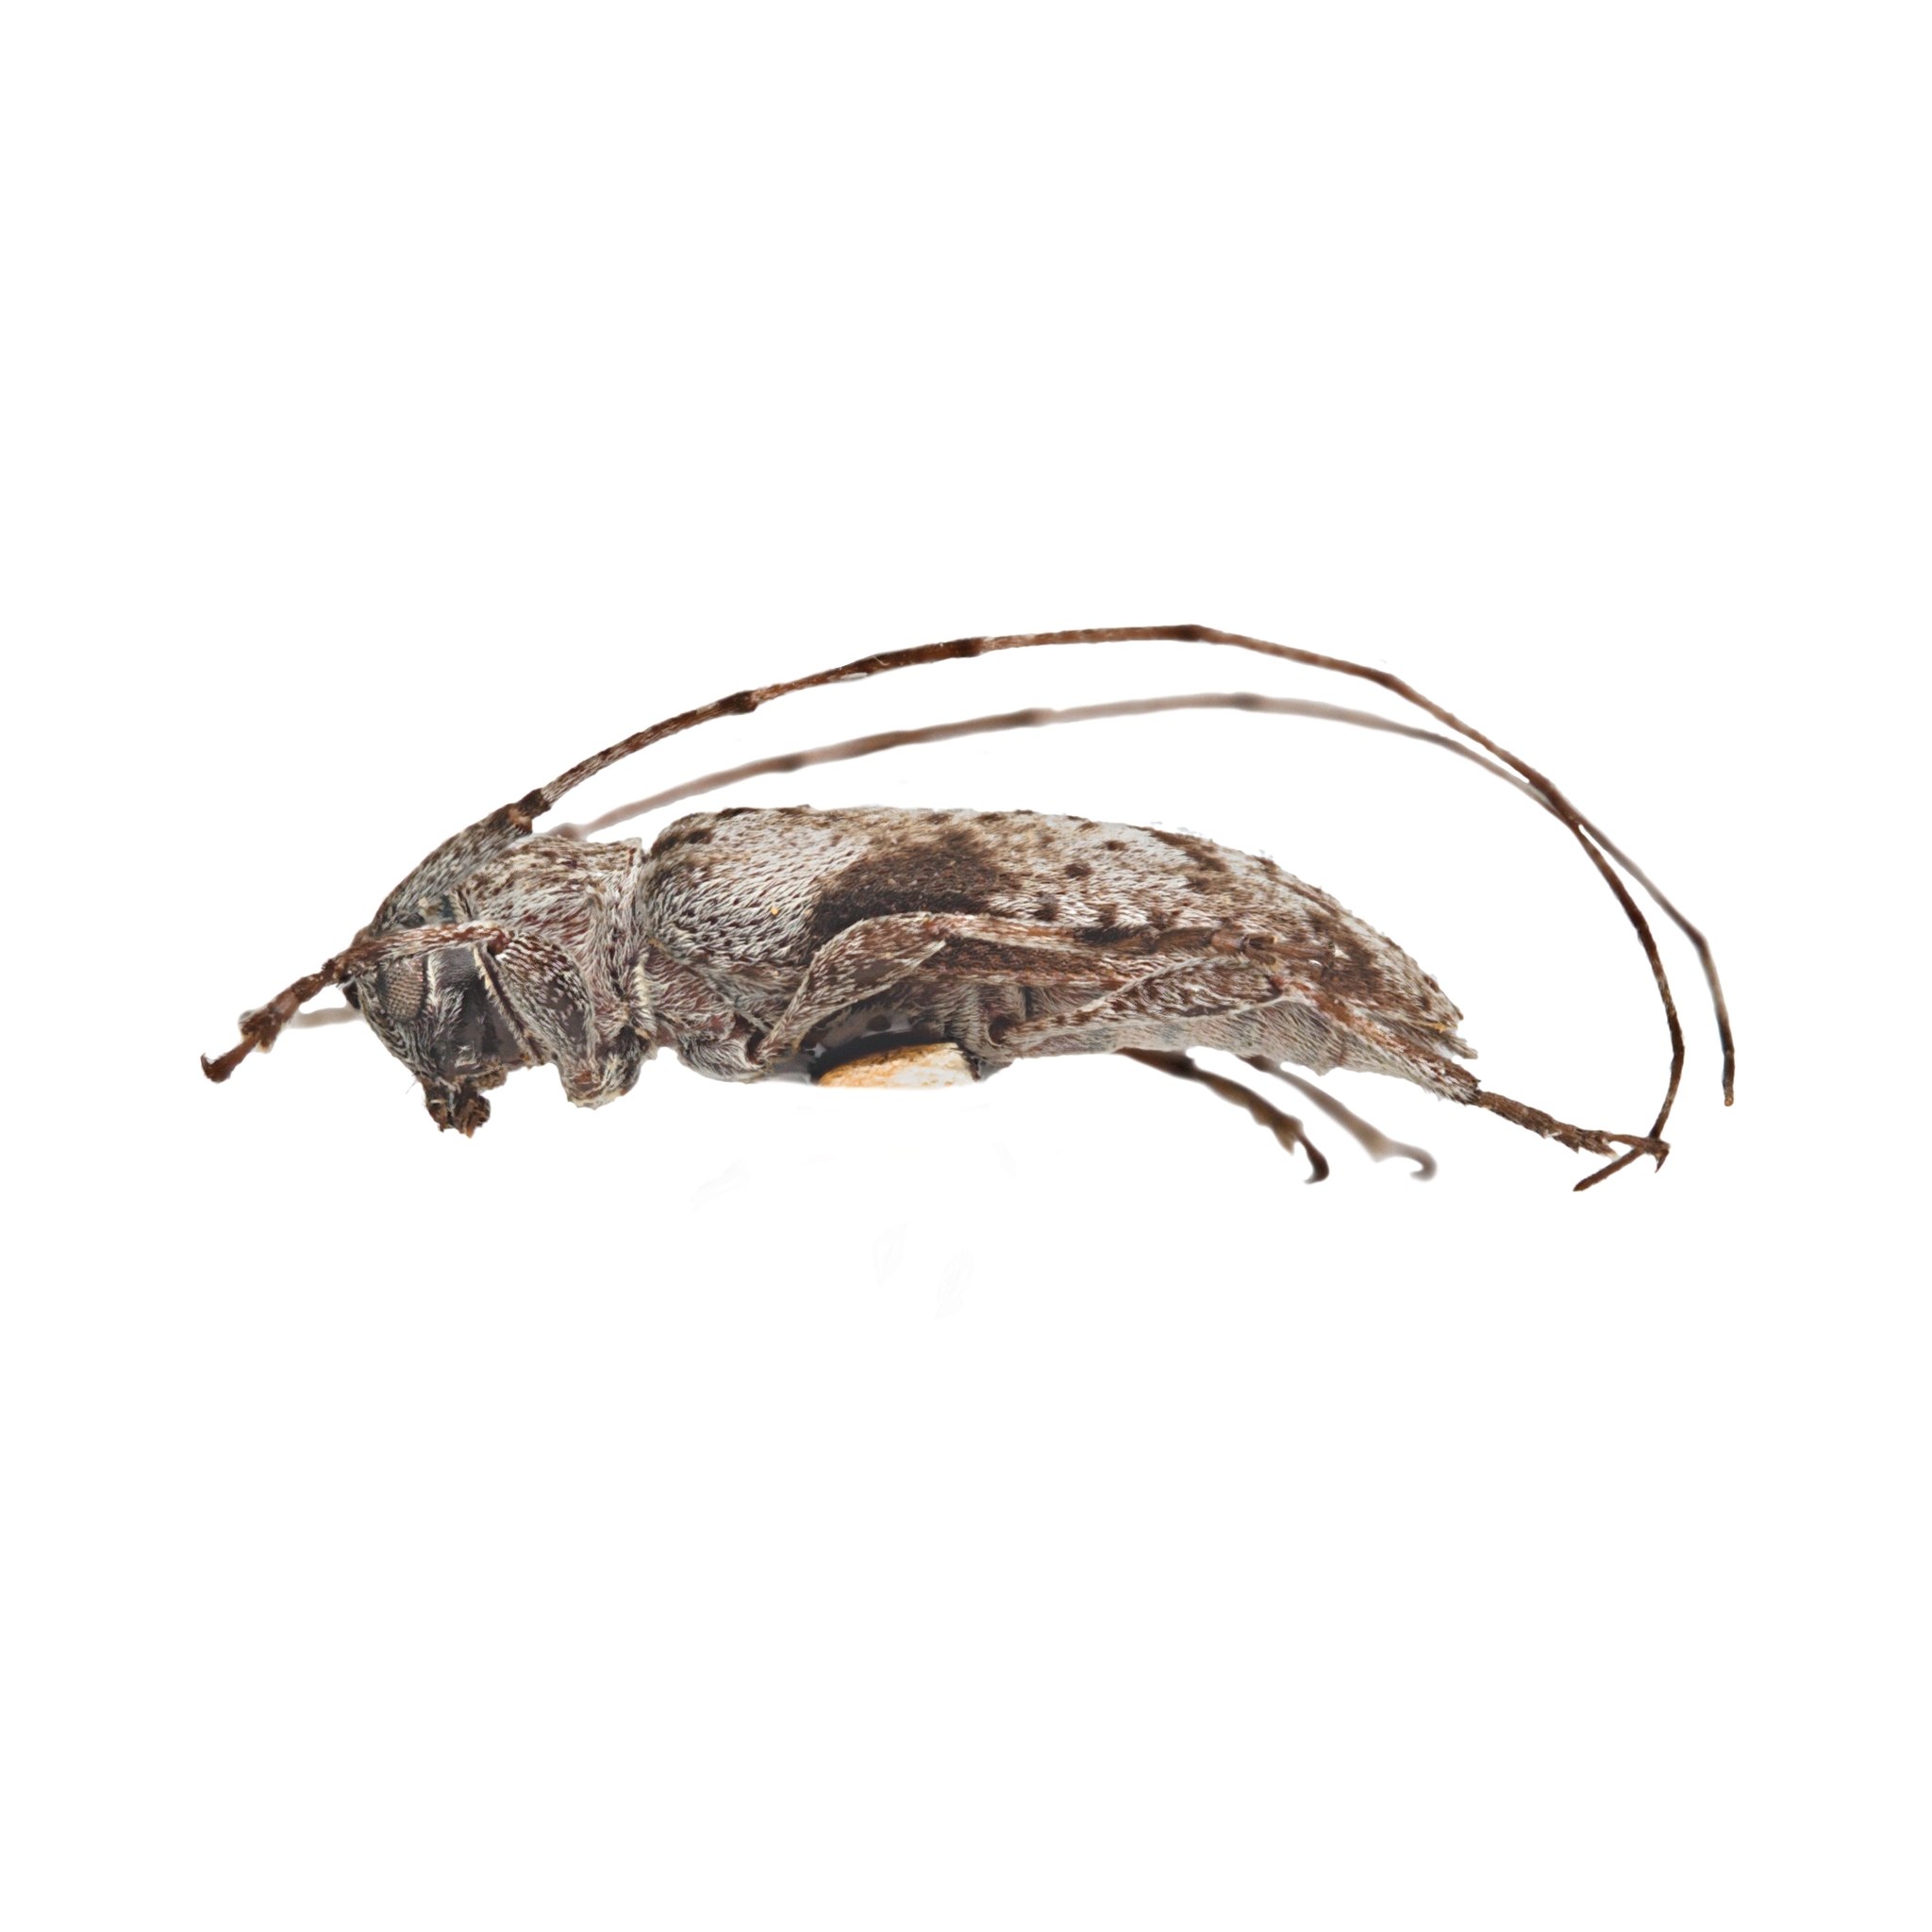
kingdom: Animalia
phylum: Arthropoda
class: Insecta
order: Coleoptera
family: Cerambycidae
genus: Sternidius
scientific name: Sternidius decorus
